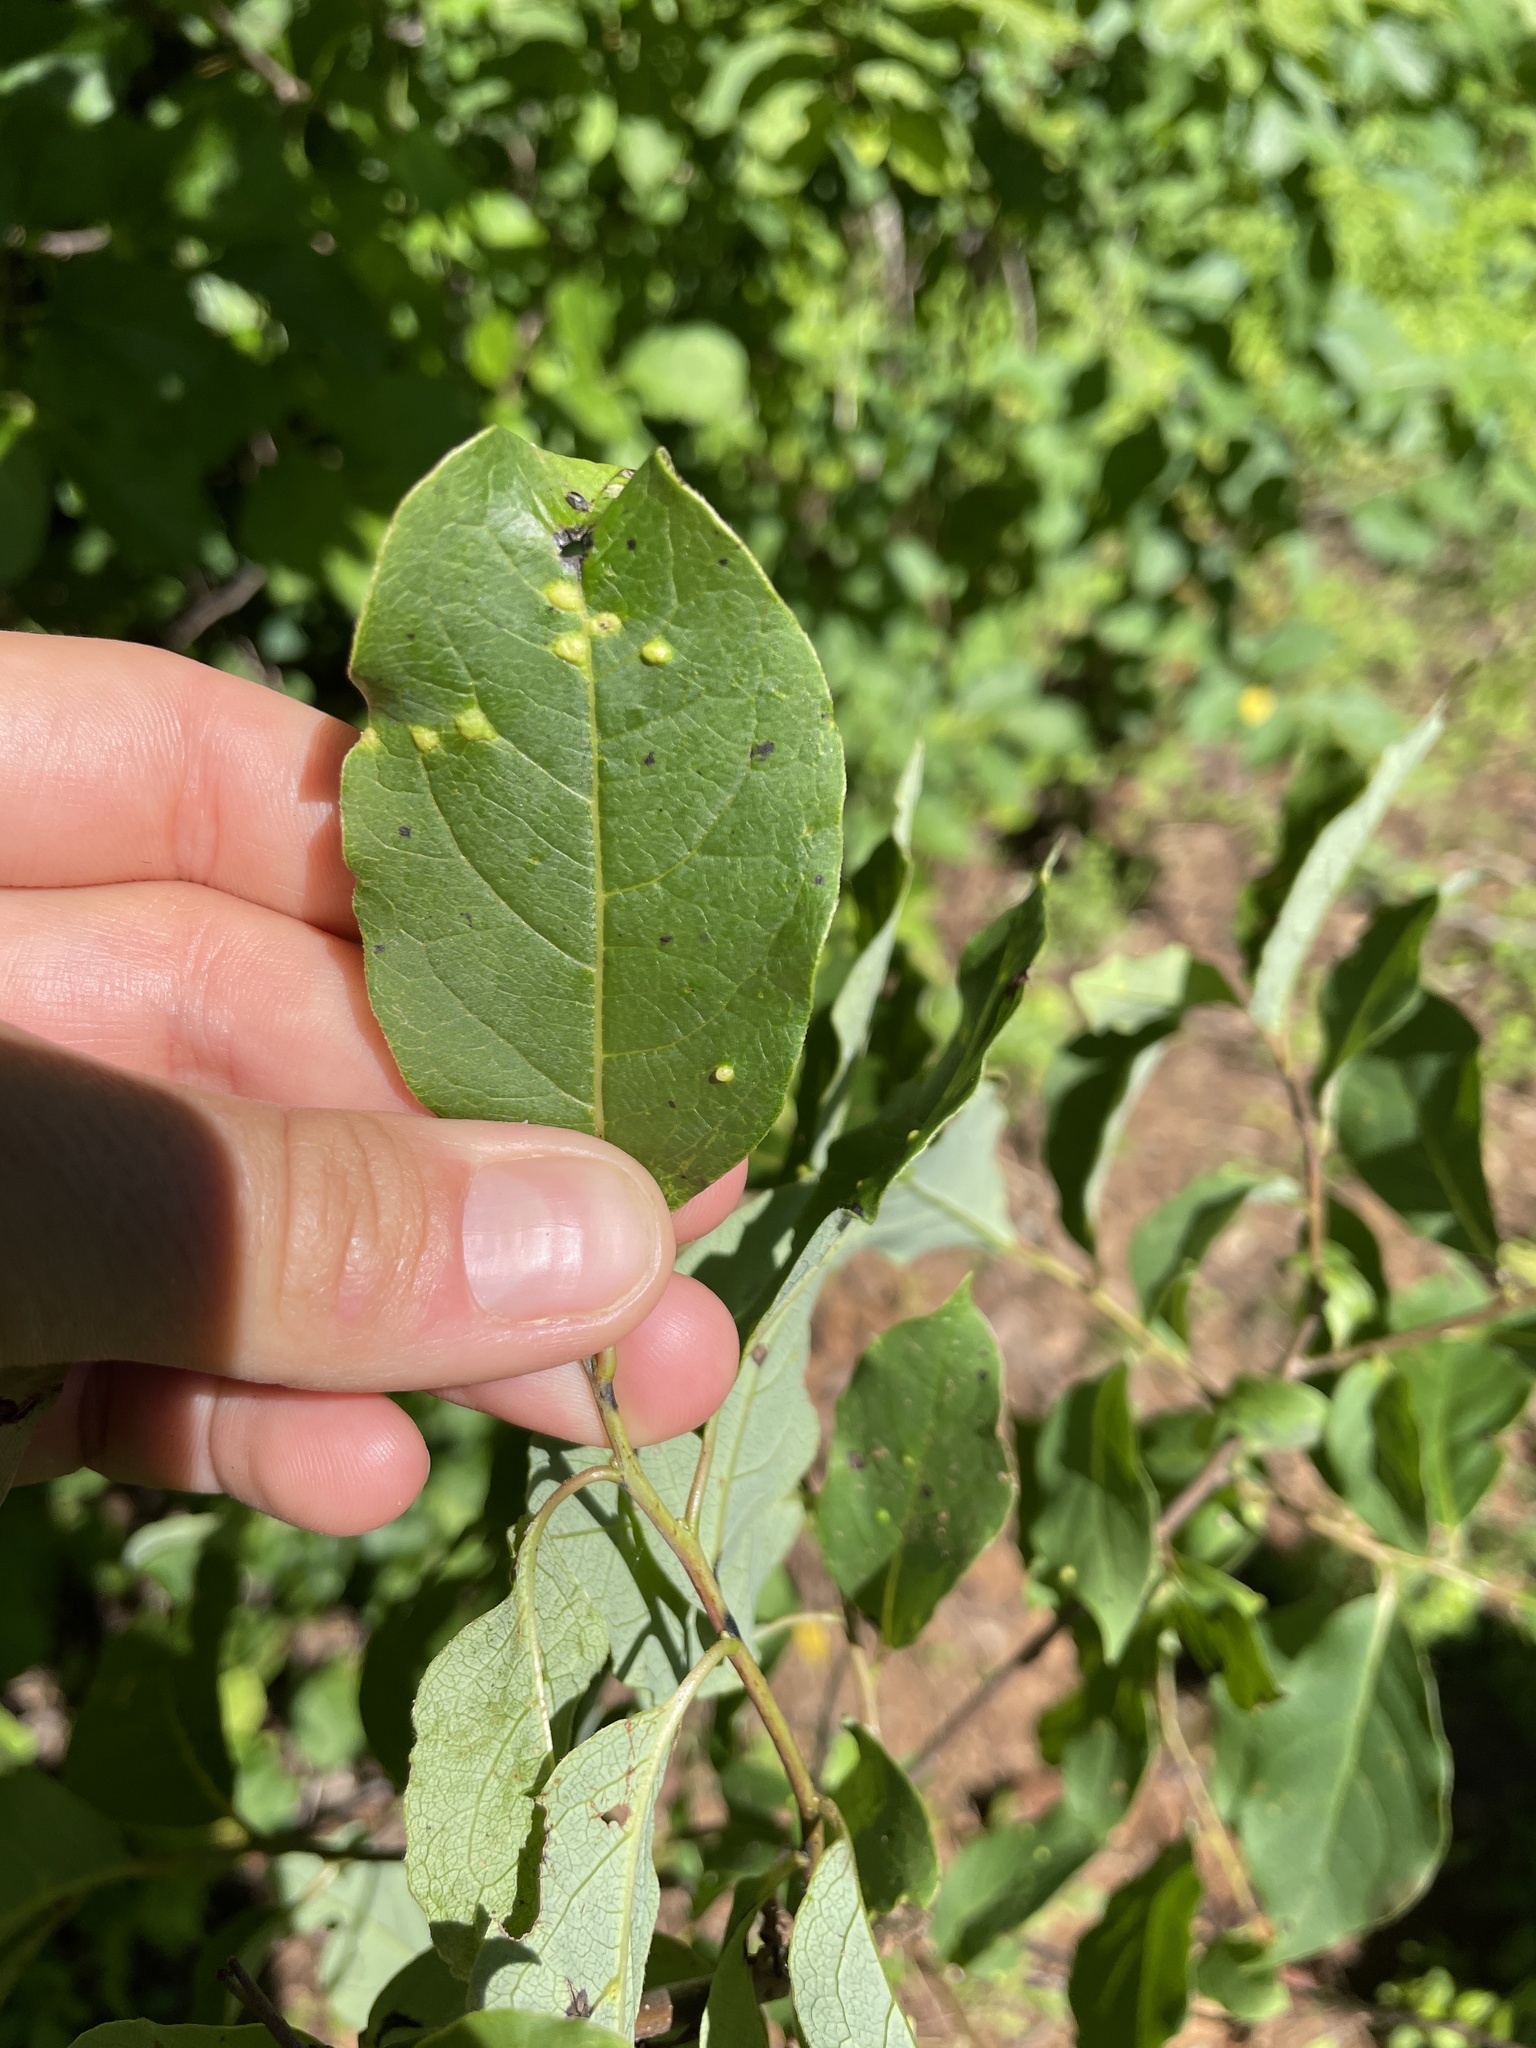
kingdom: Animalia
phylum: Arthropoda
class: Arachnida
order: Trombidiformes
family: Eriophyidae
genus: Aceria
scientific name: Aceria
